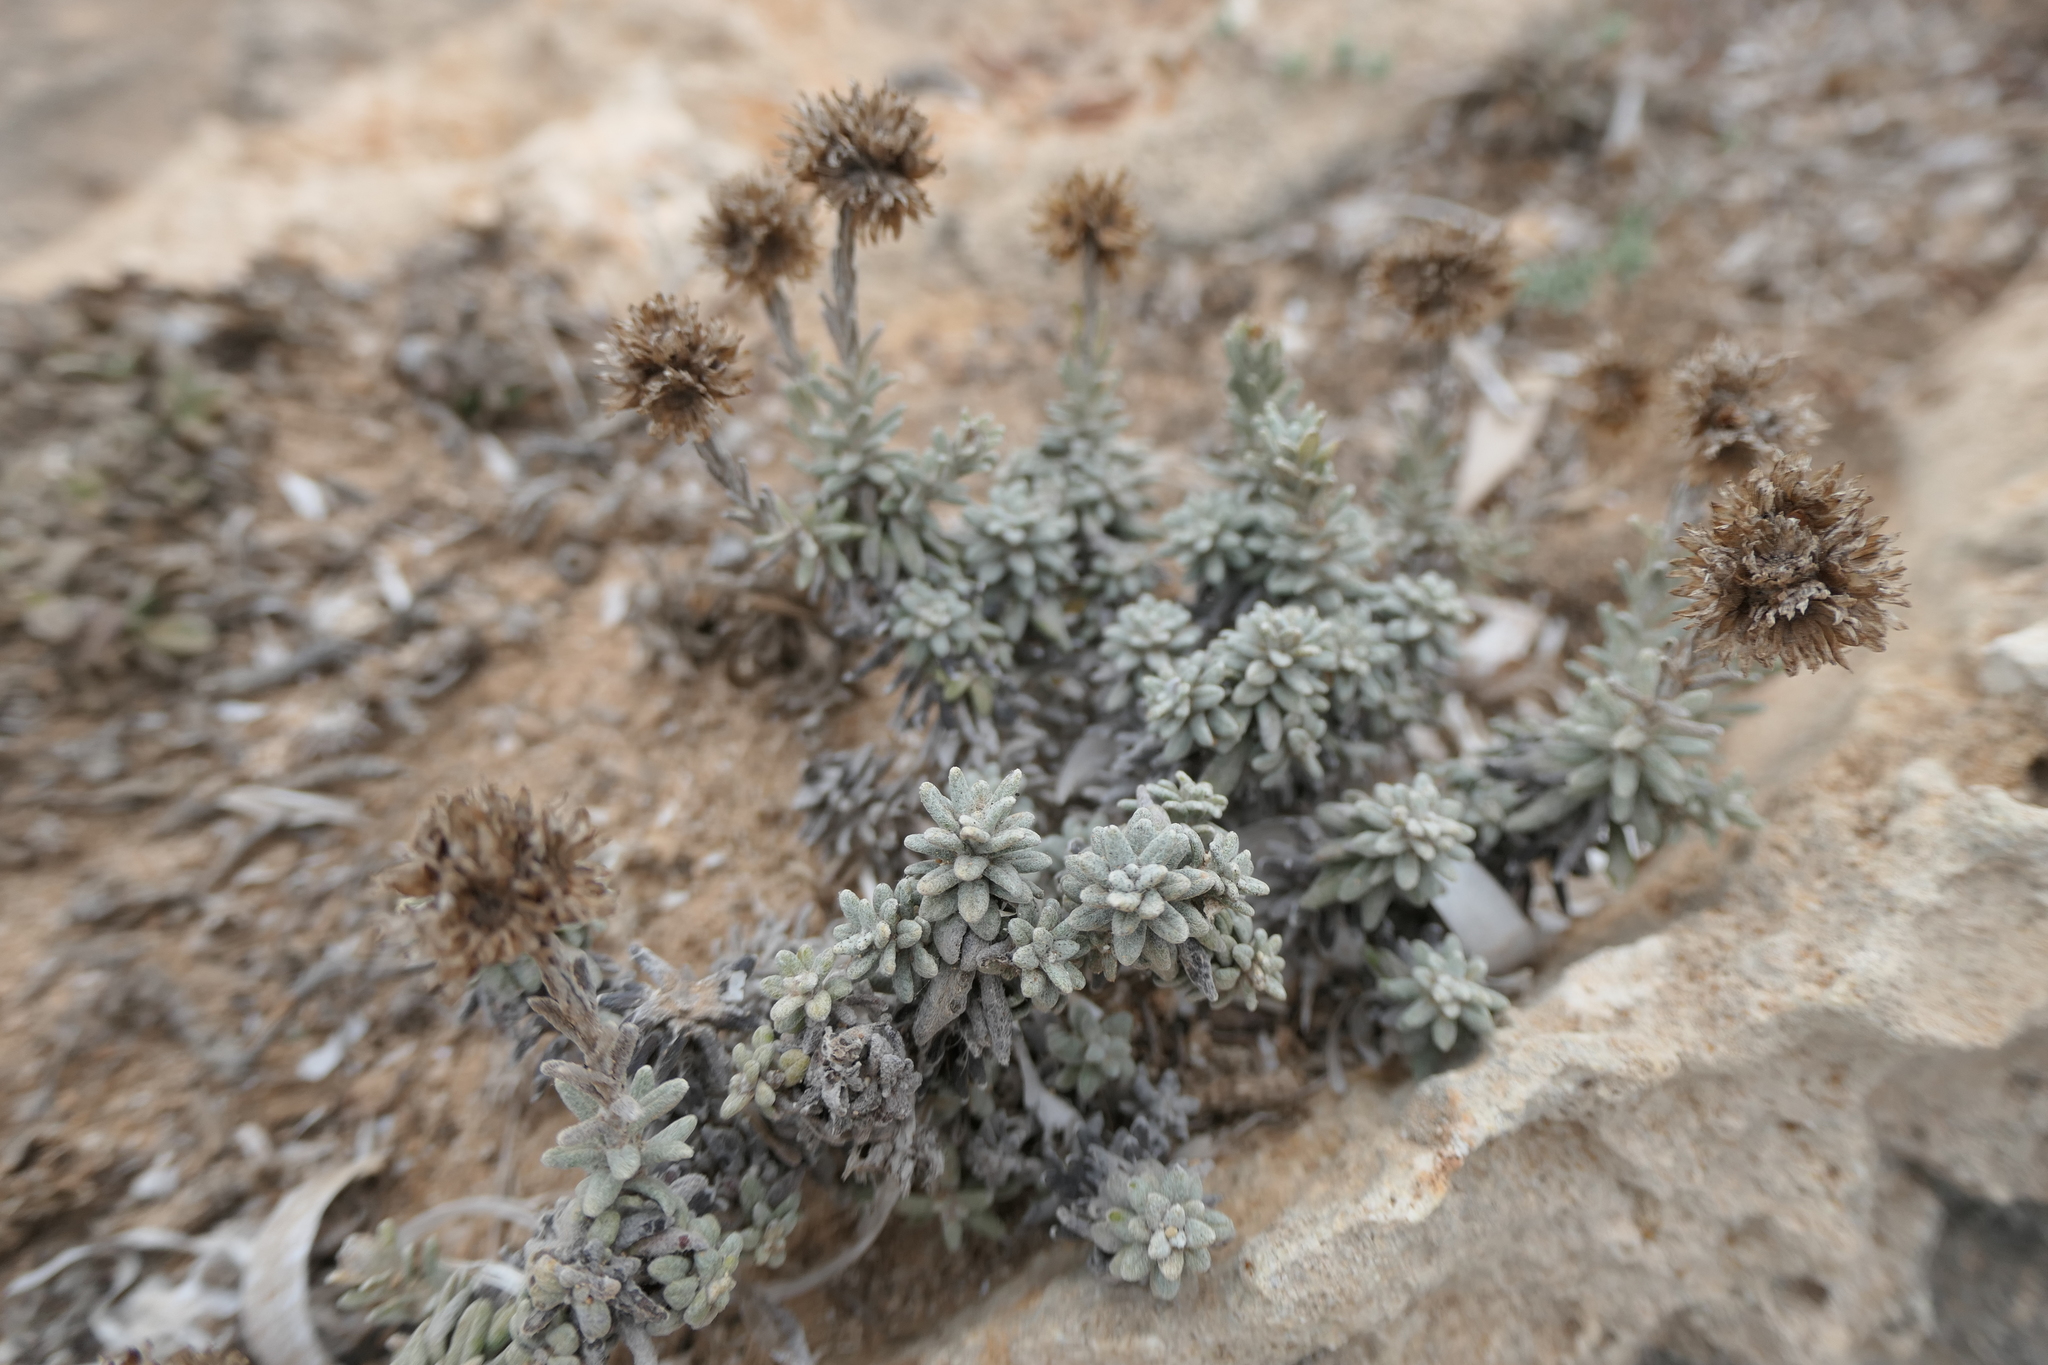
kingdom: Plantae
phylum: Tracheophyta
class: Magnoliopsida
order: Asterales
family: Asteraceae
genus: Helichrysum
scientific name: Helichrysum stoechas
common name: Goldilocks
